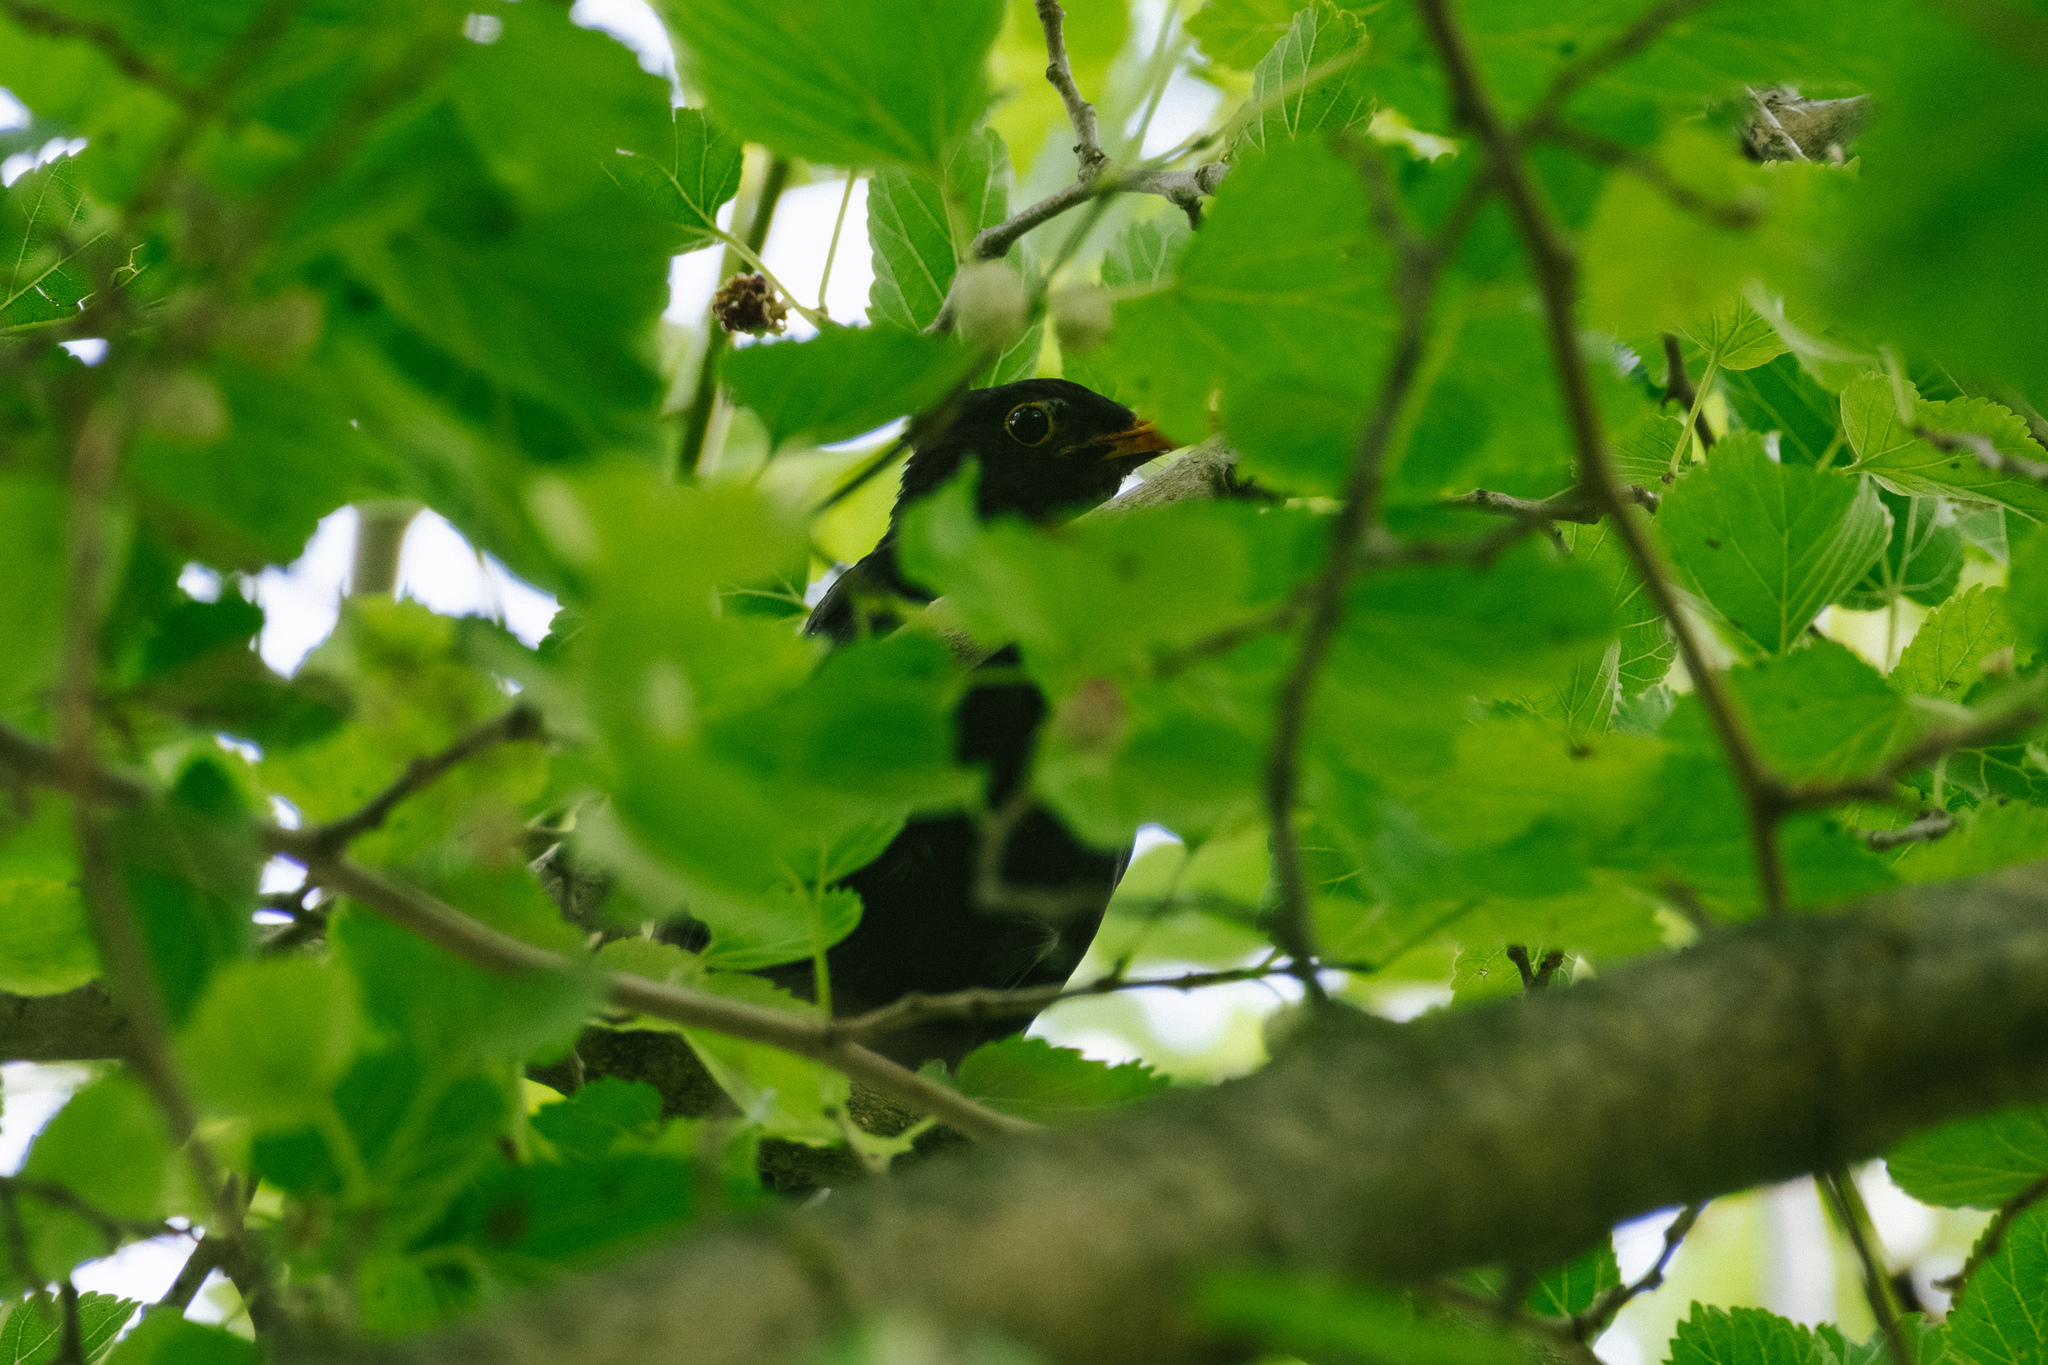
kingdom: Animalia
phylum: Chordata
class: Aves
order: Passeriformes
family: Turdidae
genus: Turdus
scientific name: Turdus merula
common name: Common blackbird
